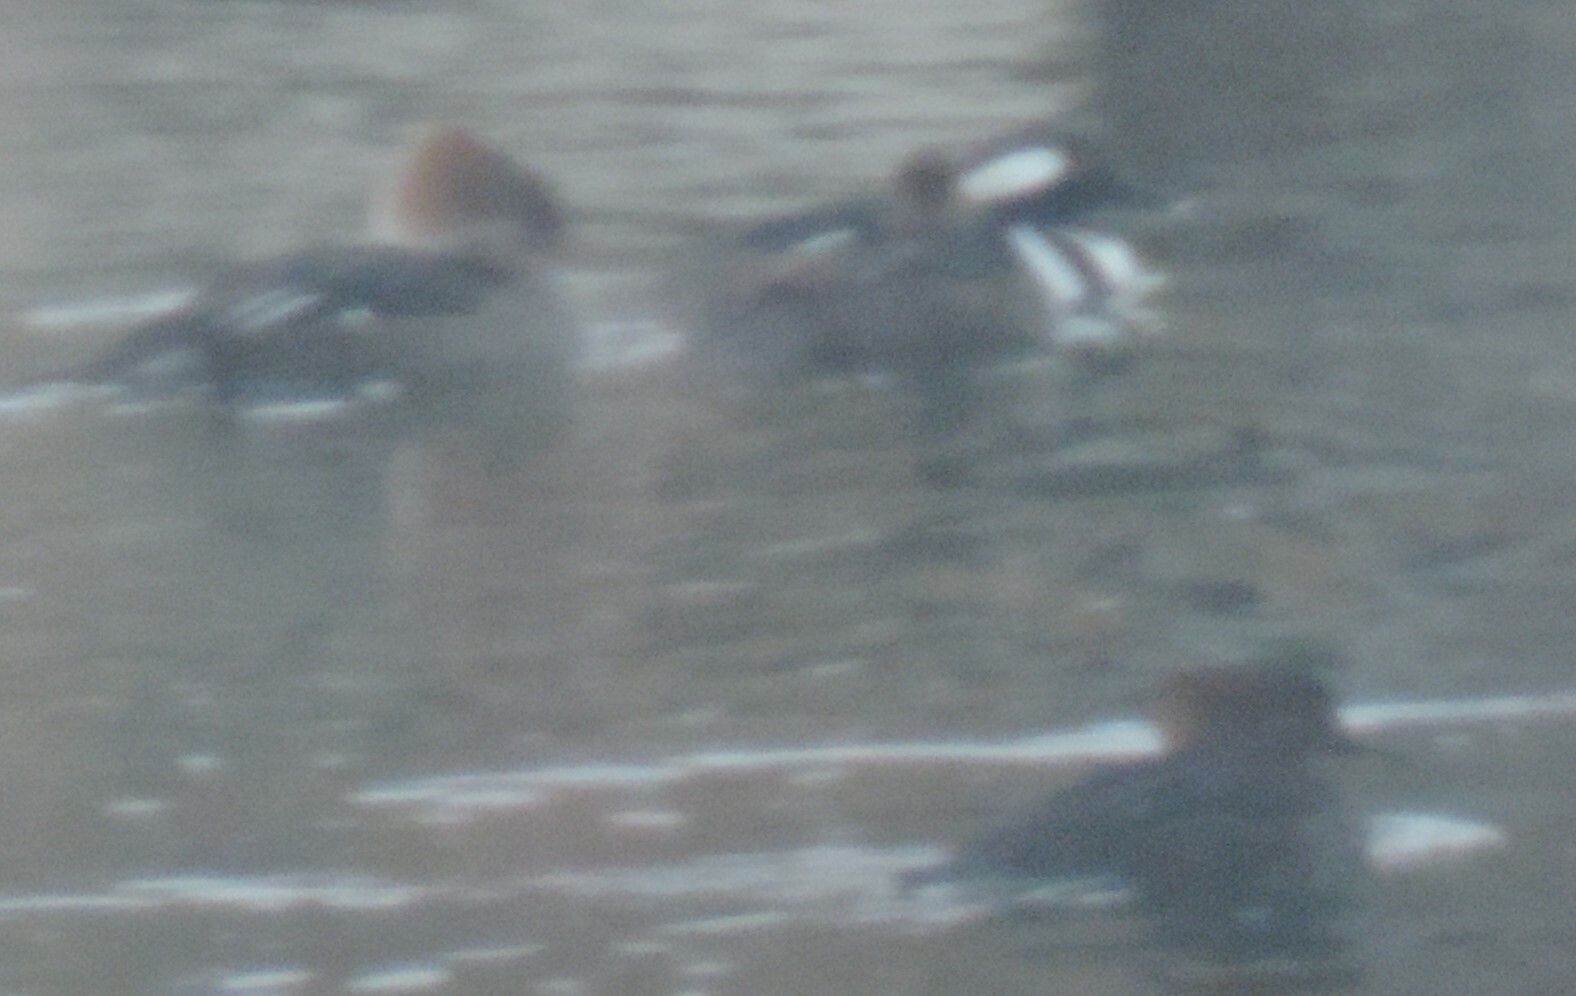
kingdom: Animalia
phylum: Chordata
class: Aves
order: Anseriformes
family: Anatidae
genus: Lophodytes
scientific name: Lophodytes cucullatus
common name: Hooded merganser
